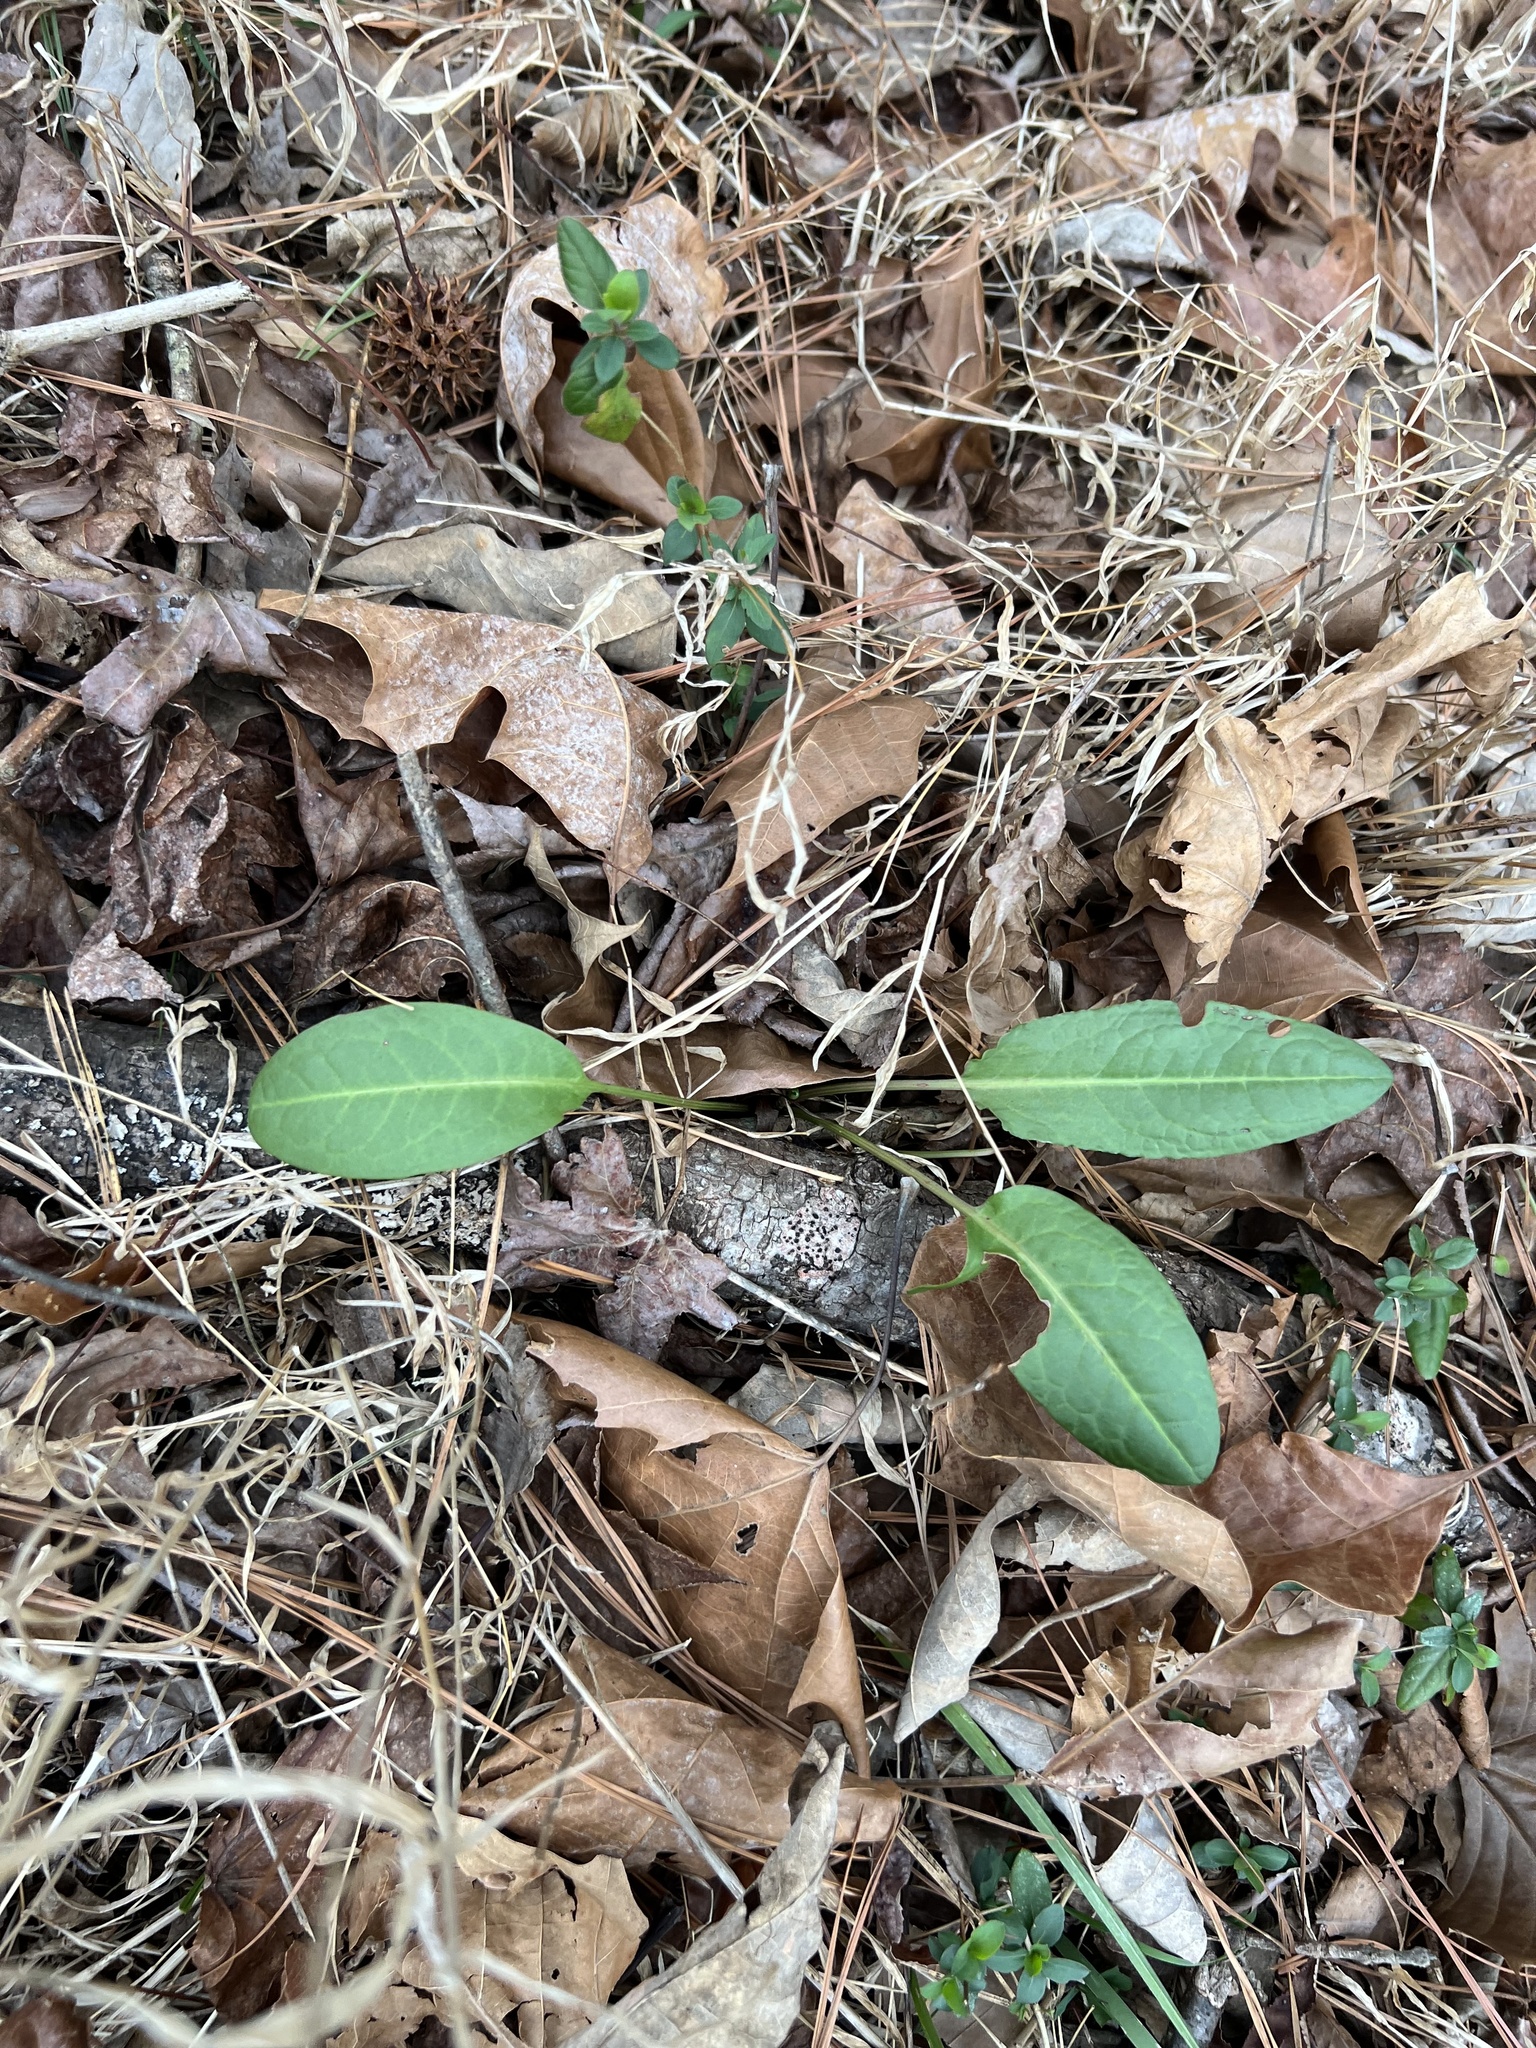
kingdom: Plantae
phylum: Tracheophyta
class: Magnoliopsida
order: Caryophyllales
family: Polygonaceae
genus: Rumex
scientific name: Rumex obtusifolius
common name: Bitter dock
